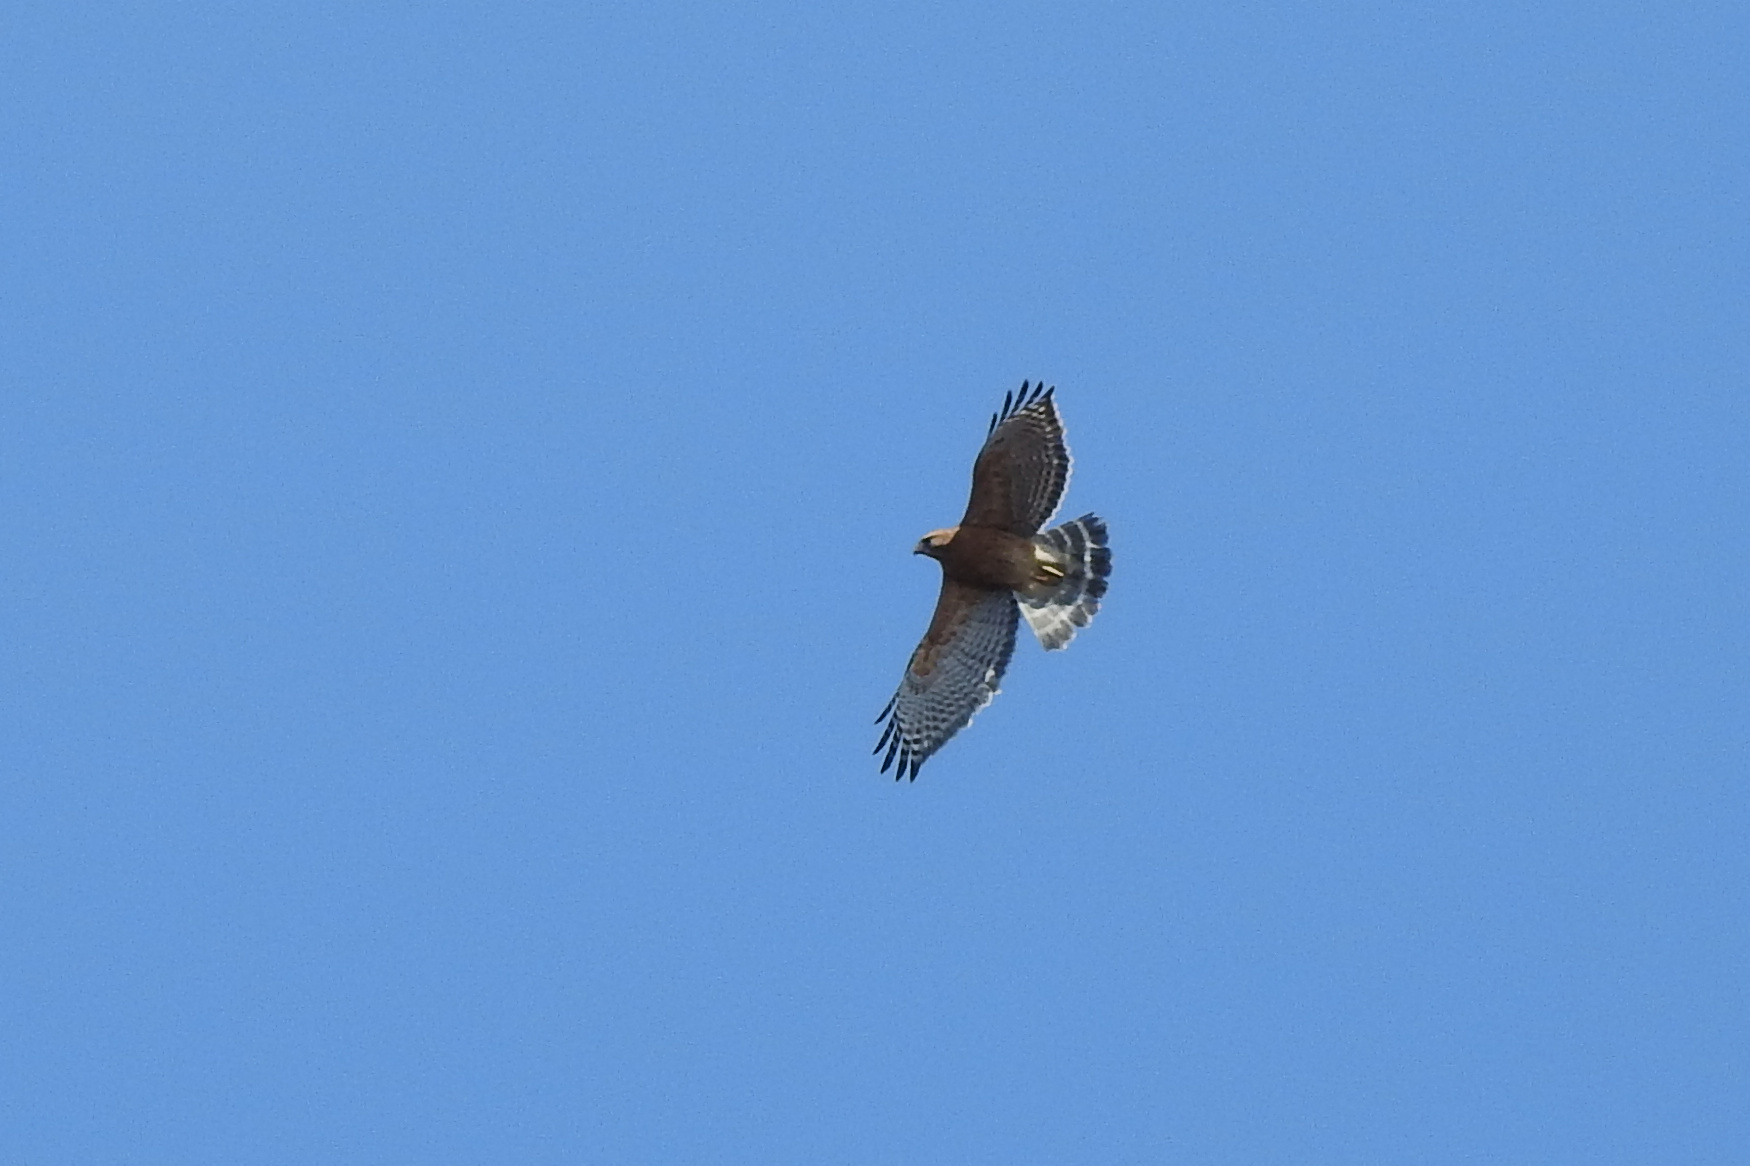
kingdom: Animalia
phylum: Chordata
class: Aves
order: Accipitriformes
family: Accipitridae
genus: Buteo
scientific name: Buteo lineatus
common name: Red-shouldered hawk
